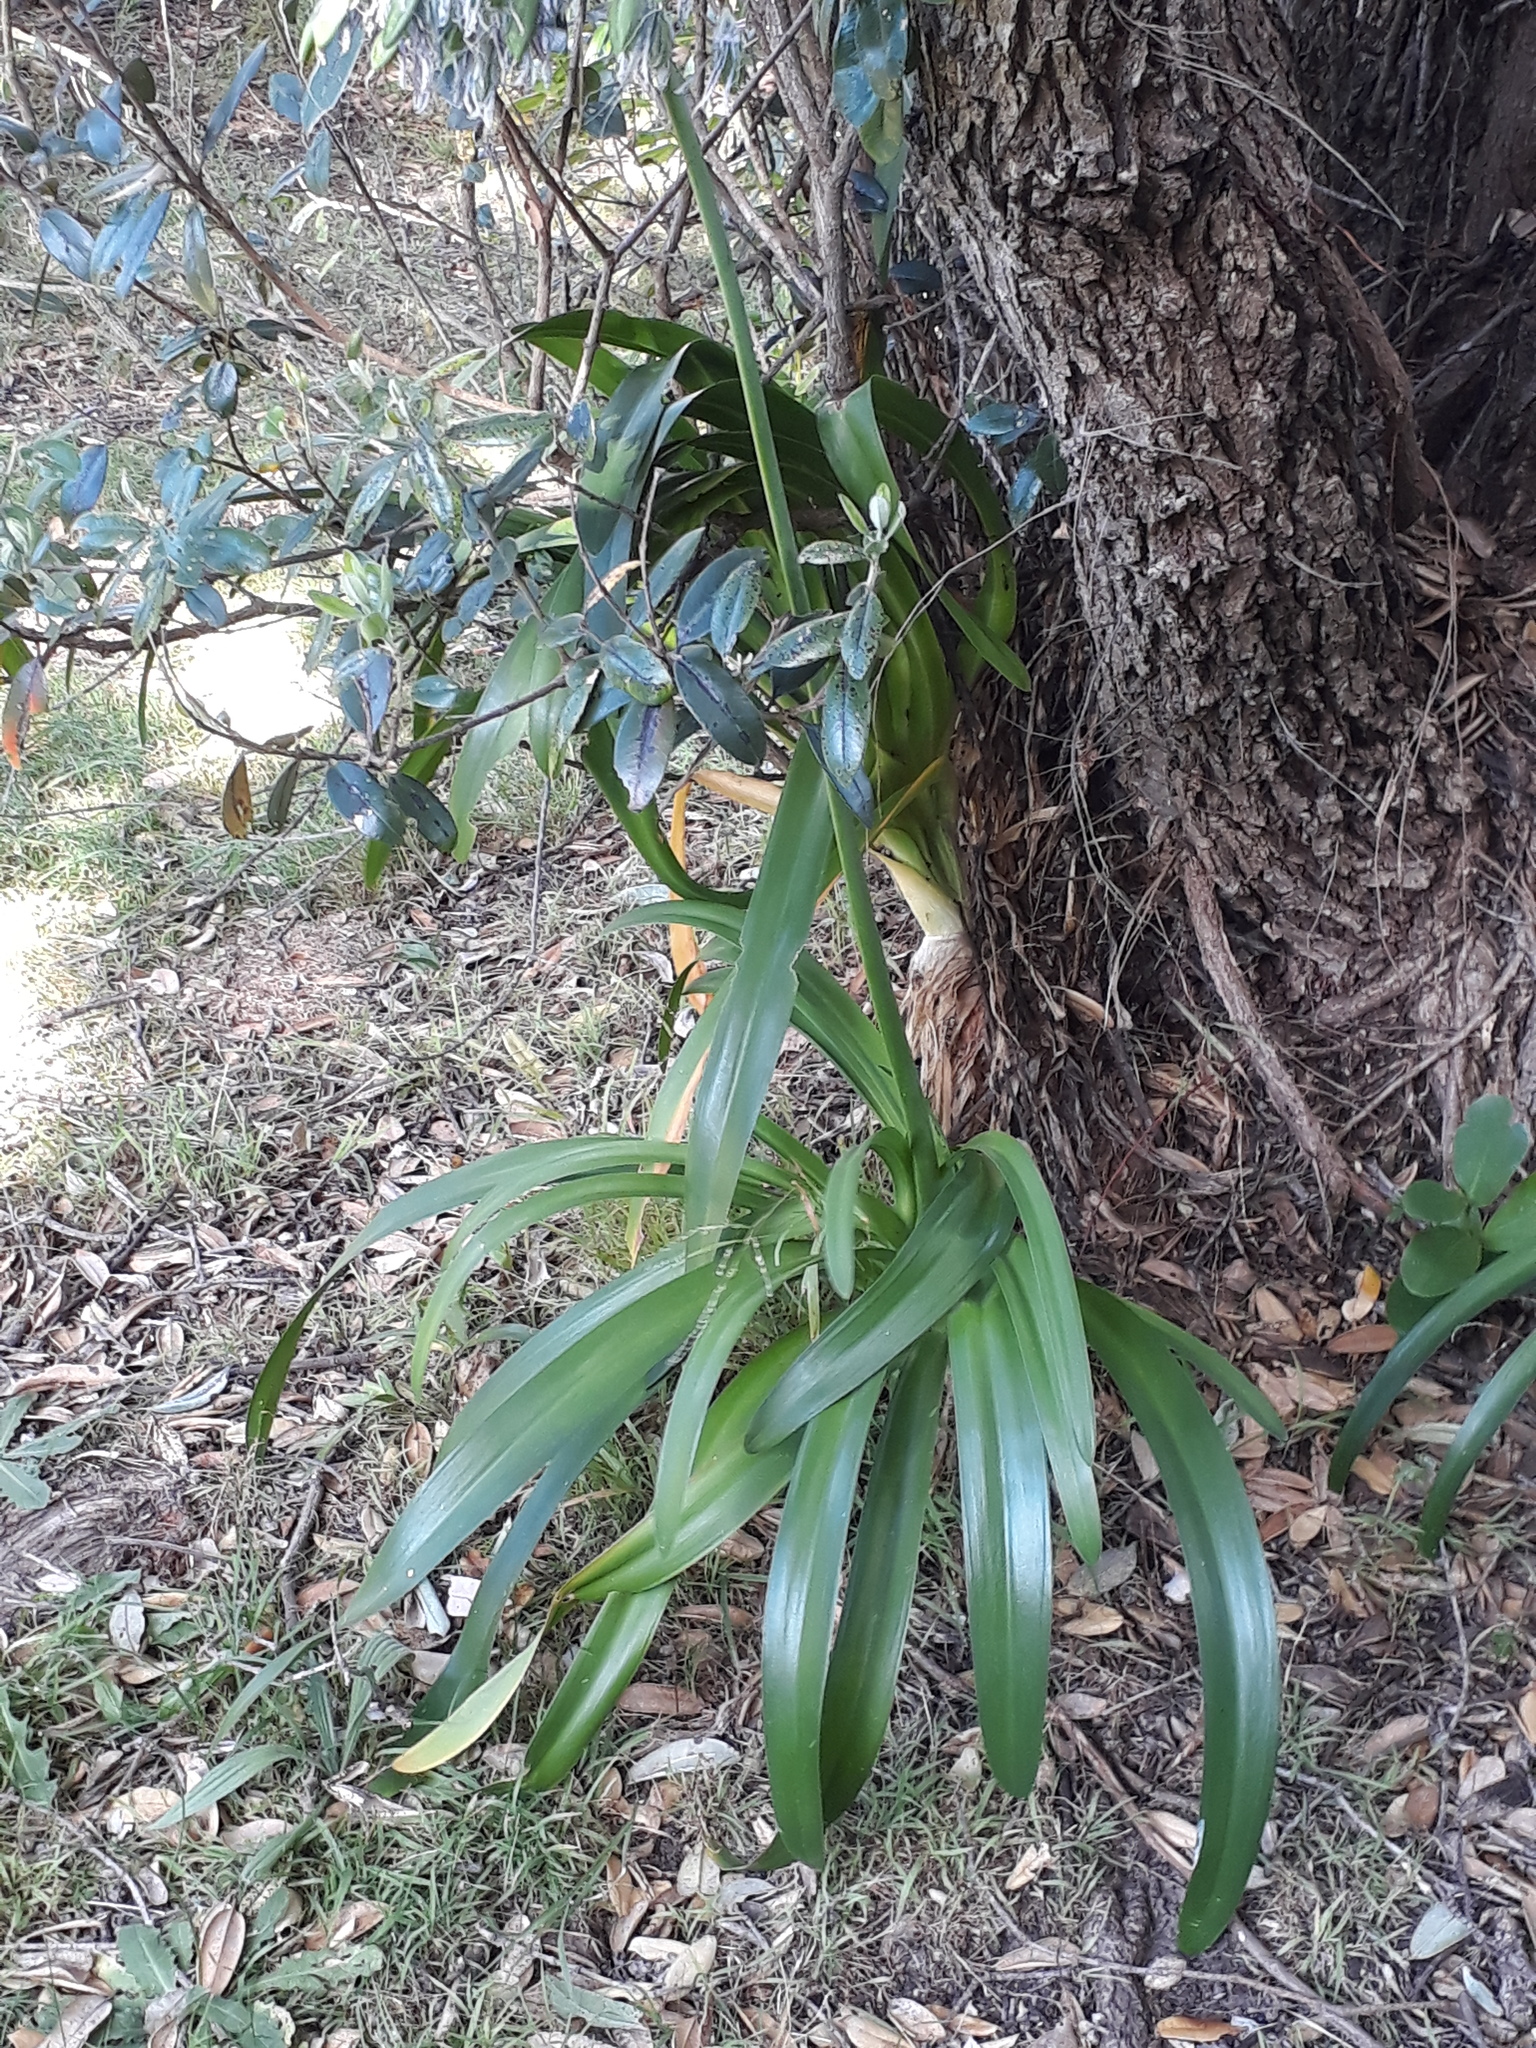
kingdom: Plantae
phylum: Tracheophyta
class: Liliopsida
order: Asparagales
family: Amaryllidaceae
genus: Agapanthus
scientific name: Agapanthus praecox
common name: African-lily
